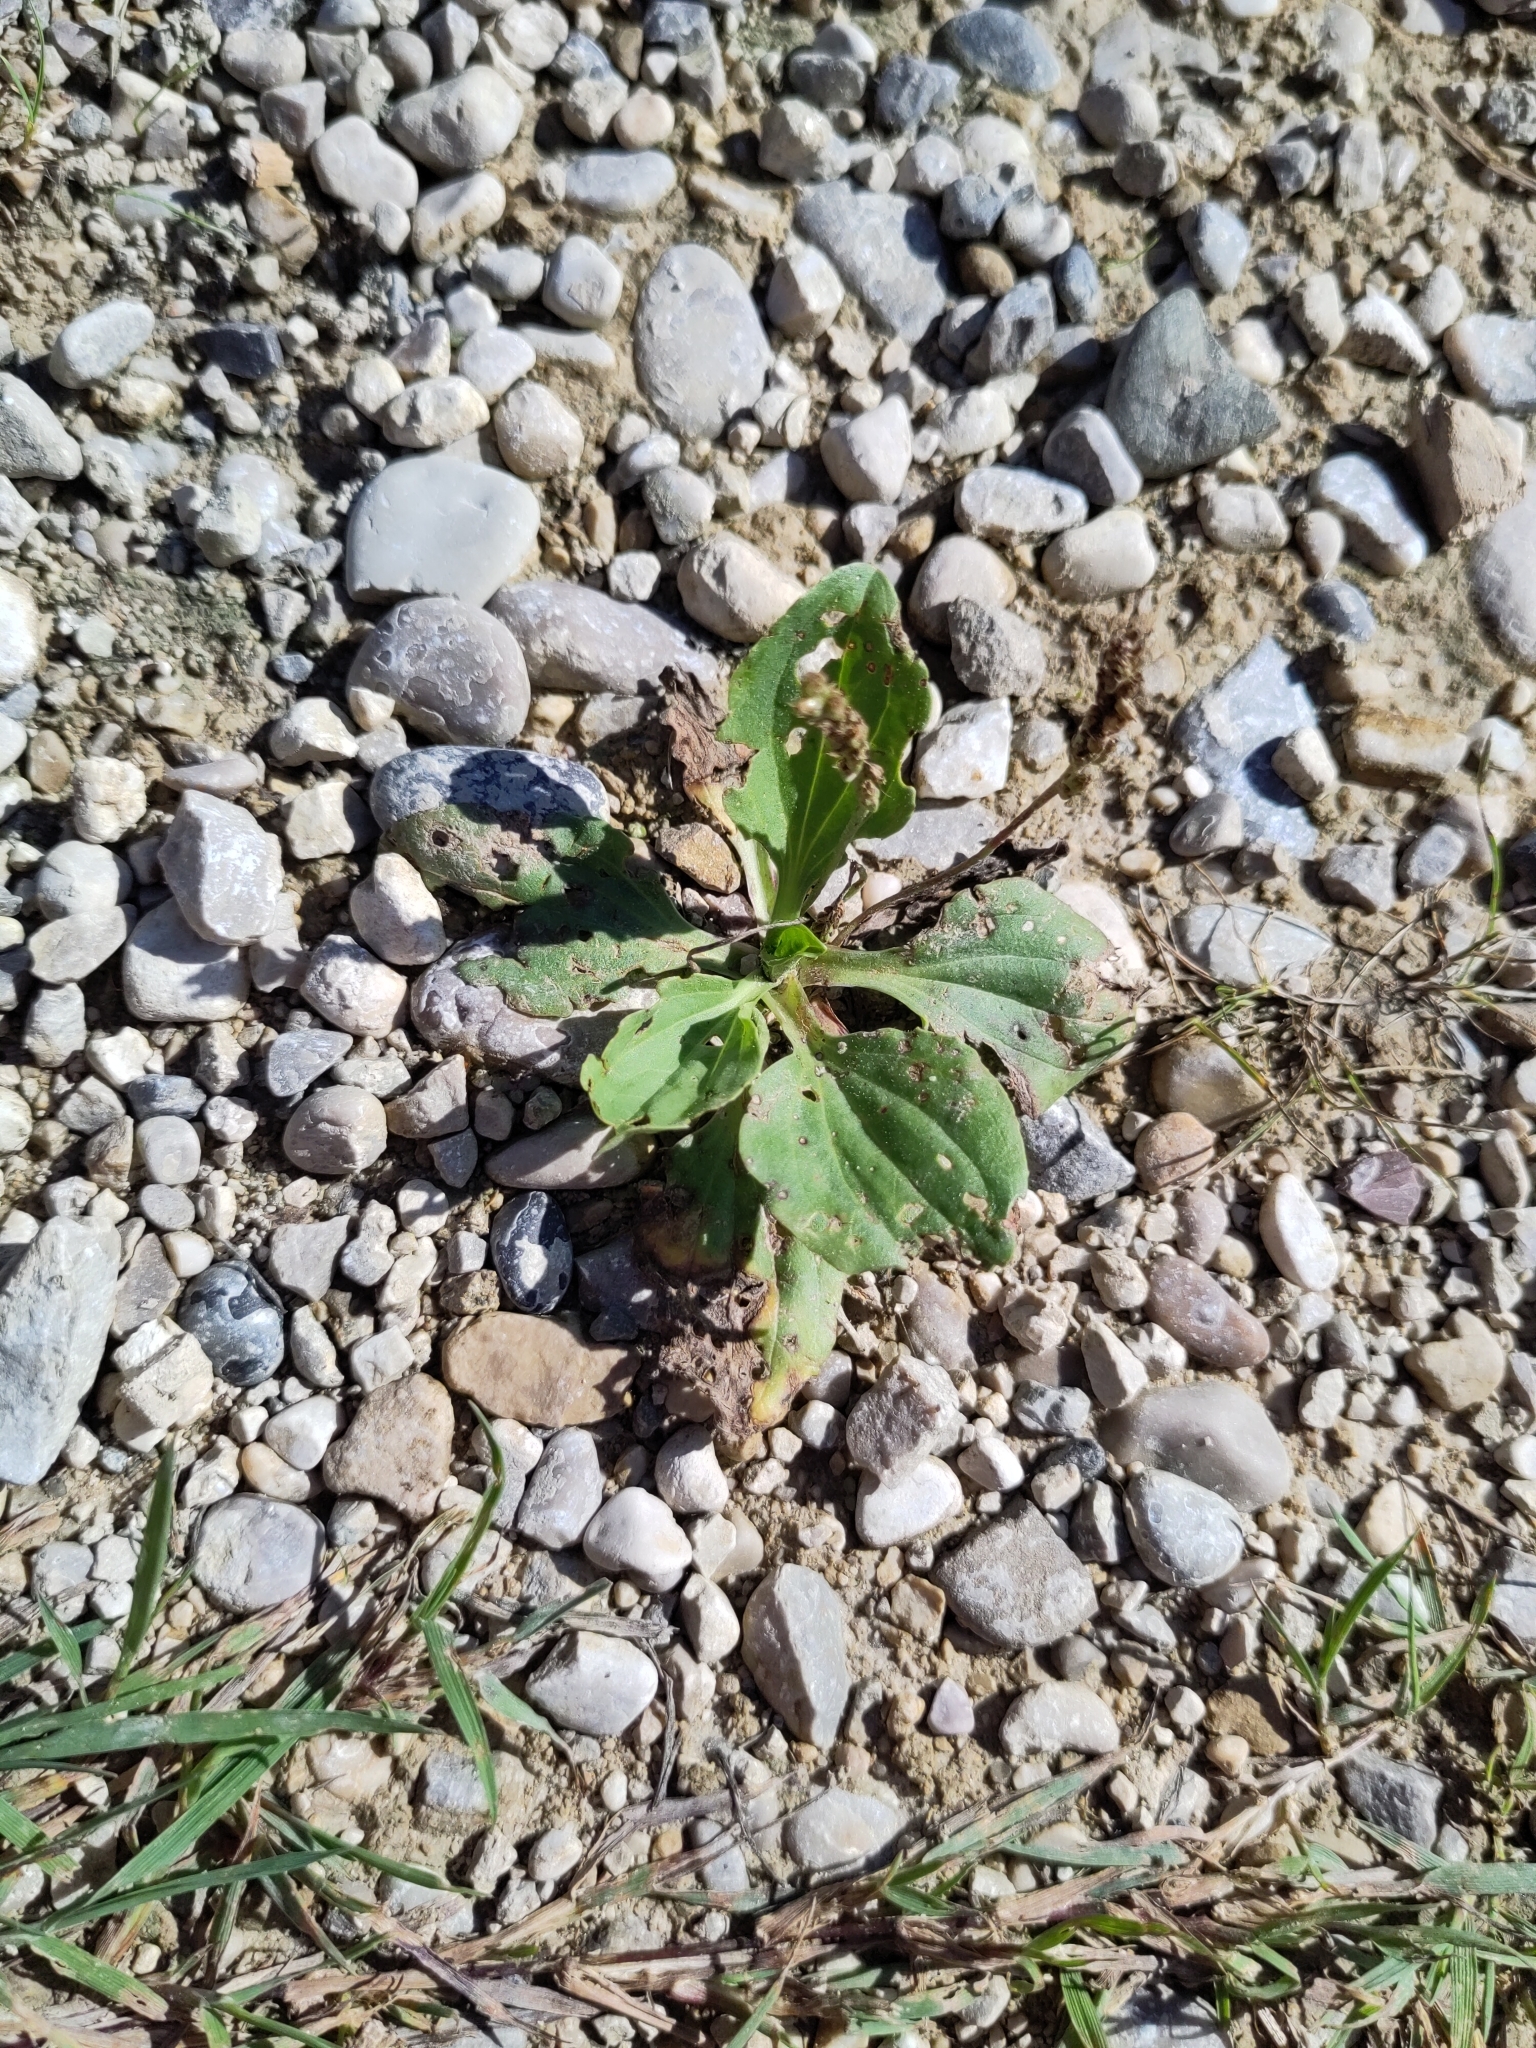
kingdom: Plantae
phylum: Tracheophyta
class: Magnoliopsida
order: Lamiales
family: Plantaginaceae
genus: Plantago
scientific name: Plantago major
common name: Common plantain
